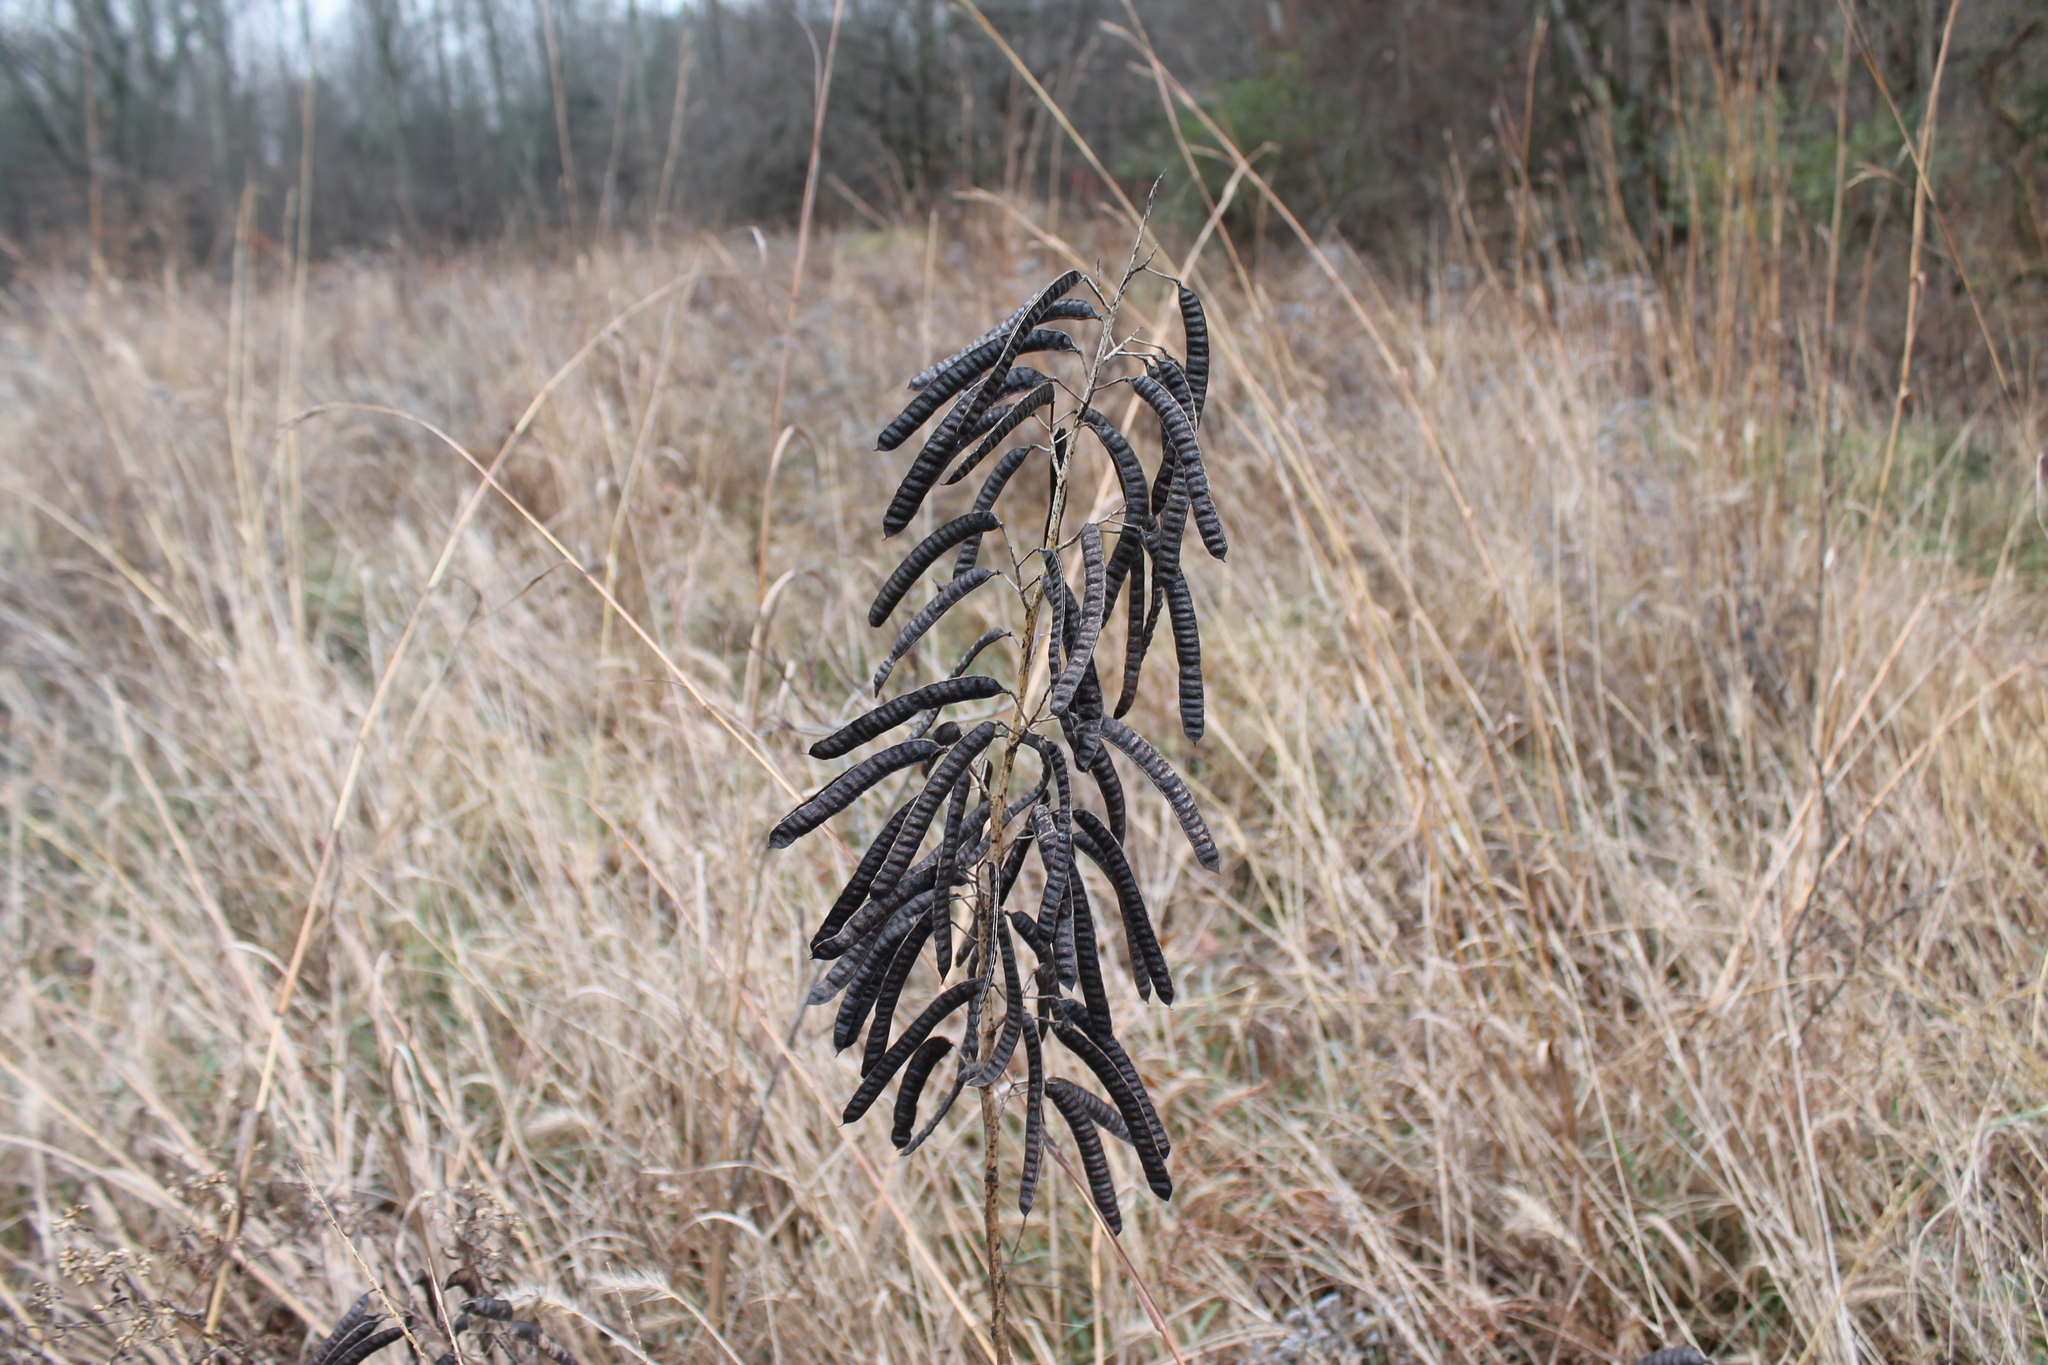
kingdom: Plantae
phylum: Tracheophyta
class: Magnoliopsida
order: Fabales
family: Fabaceae
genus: Senna
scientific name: Senna marilandica
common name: American senna
